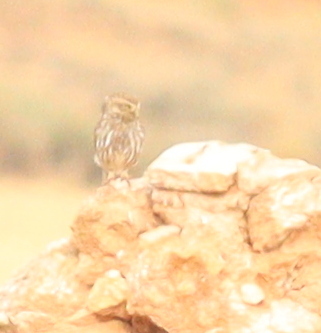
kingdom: Animalia
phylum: Chordata
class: Aves
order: Strigiformes
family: Strigidae
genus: Athene
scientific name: Athene noctua
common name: Little owl
